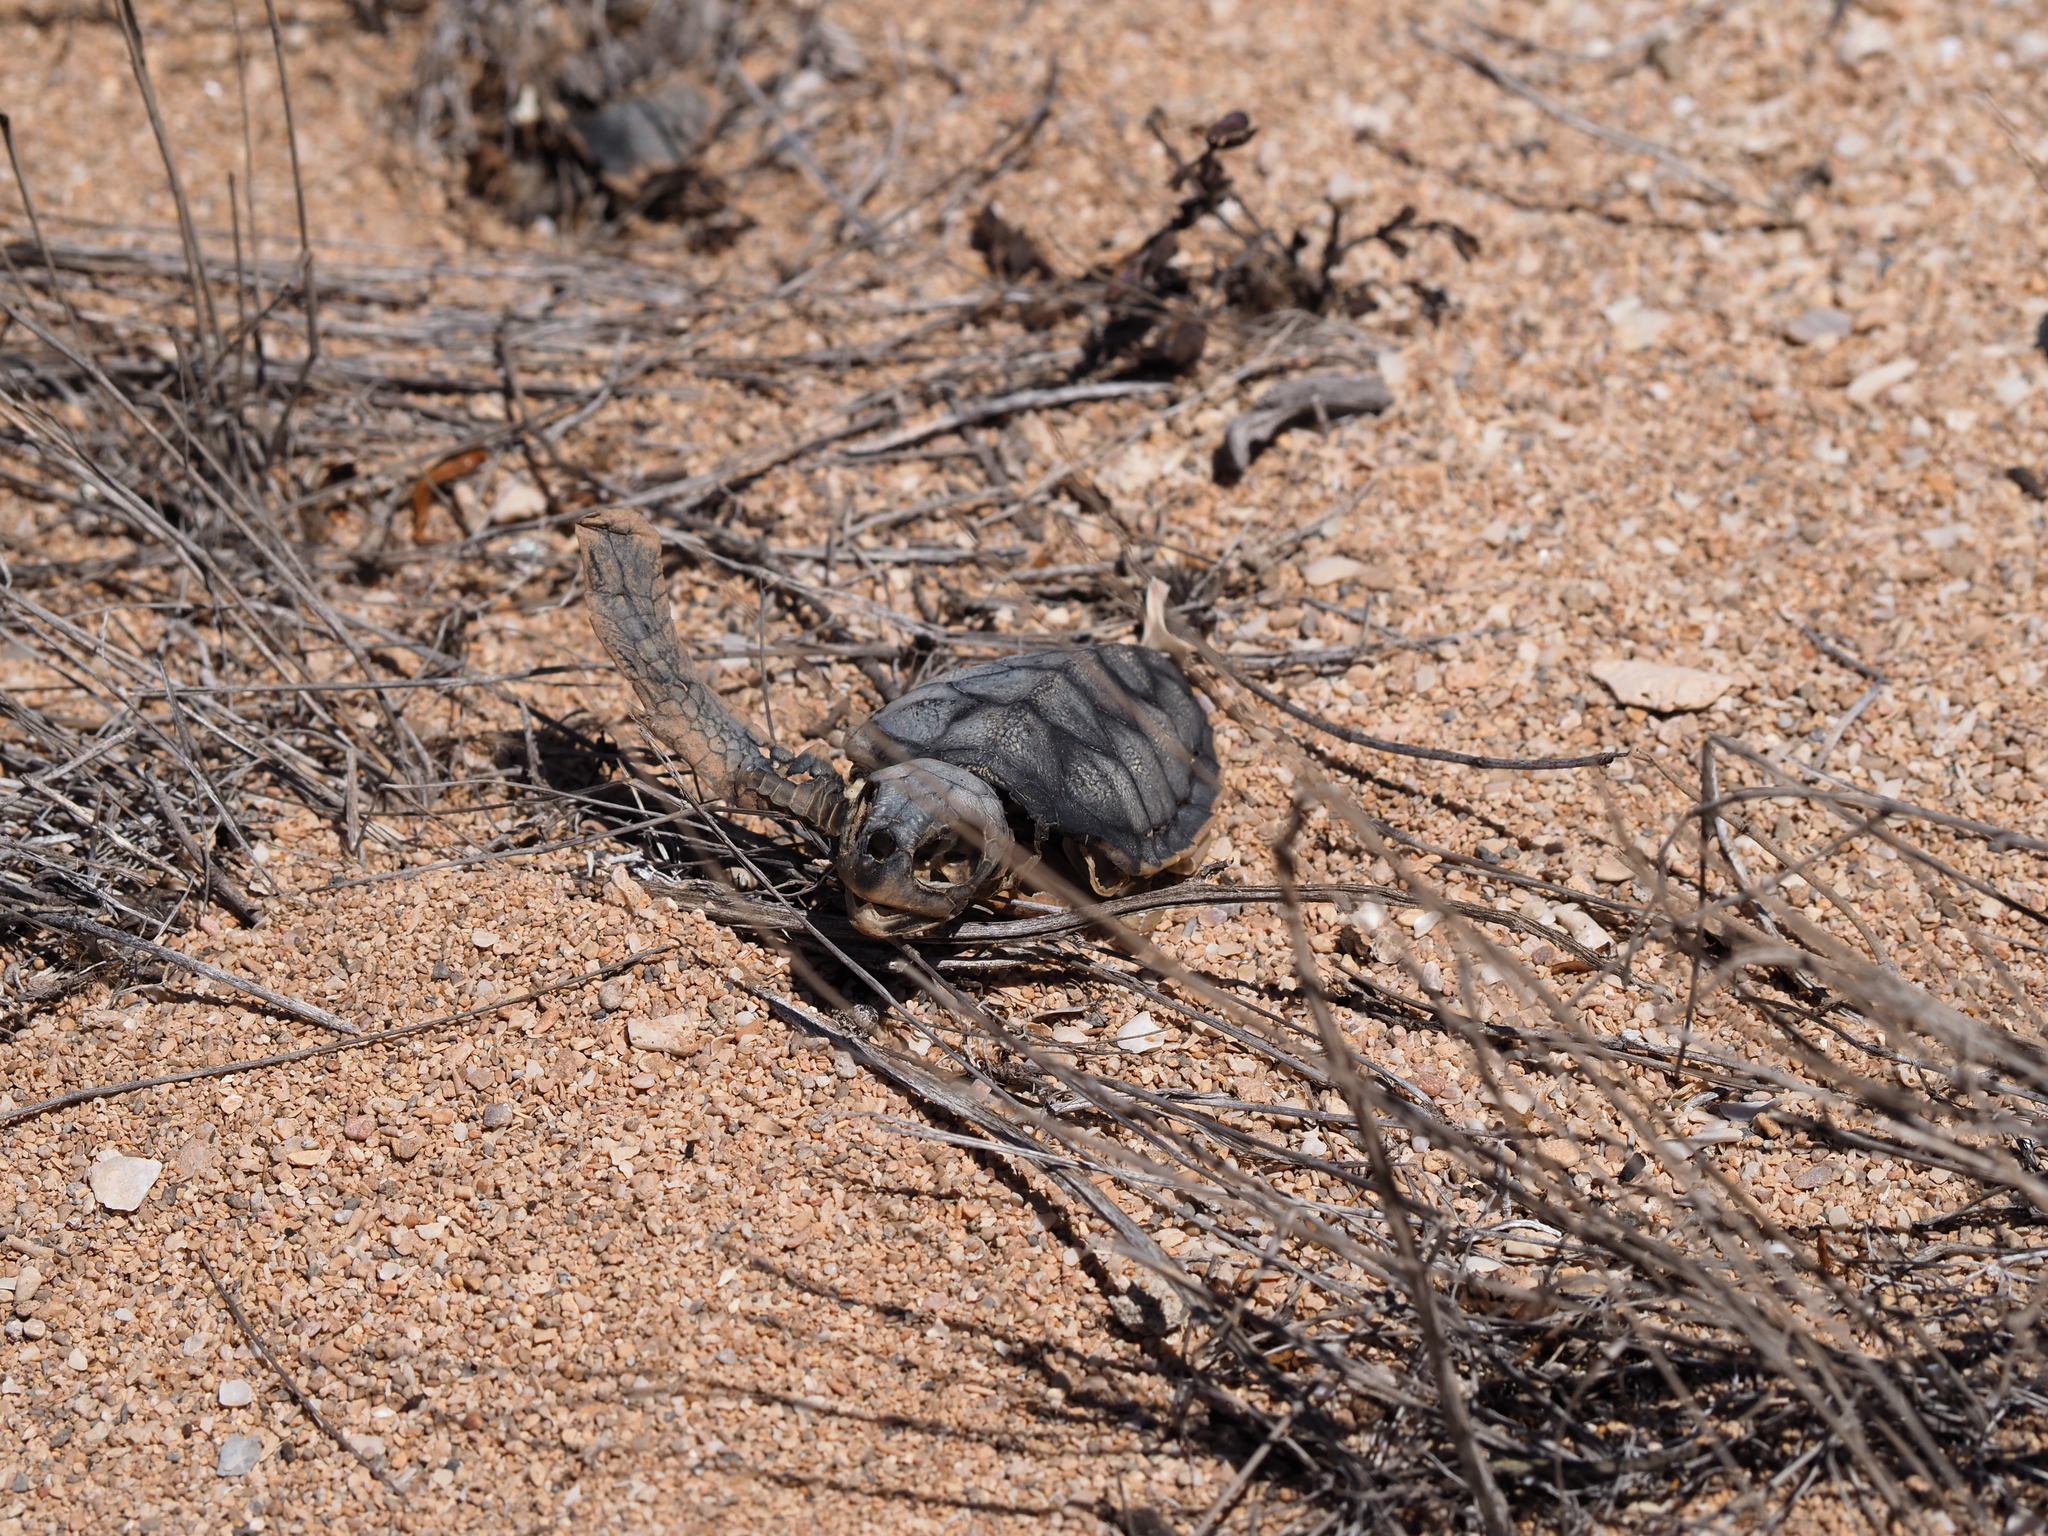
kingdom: Animalia
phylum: Chordata
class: Testudines
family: Cheloniidae
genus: Chelonia
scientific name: Chelonia mydas
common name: Green turtle
